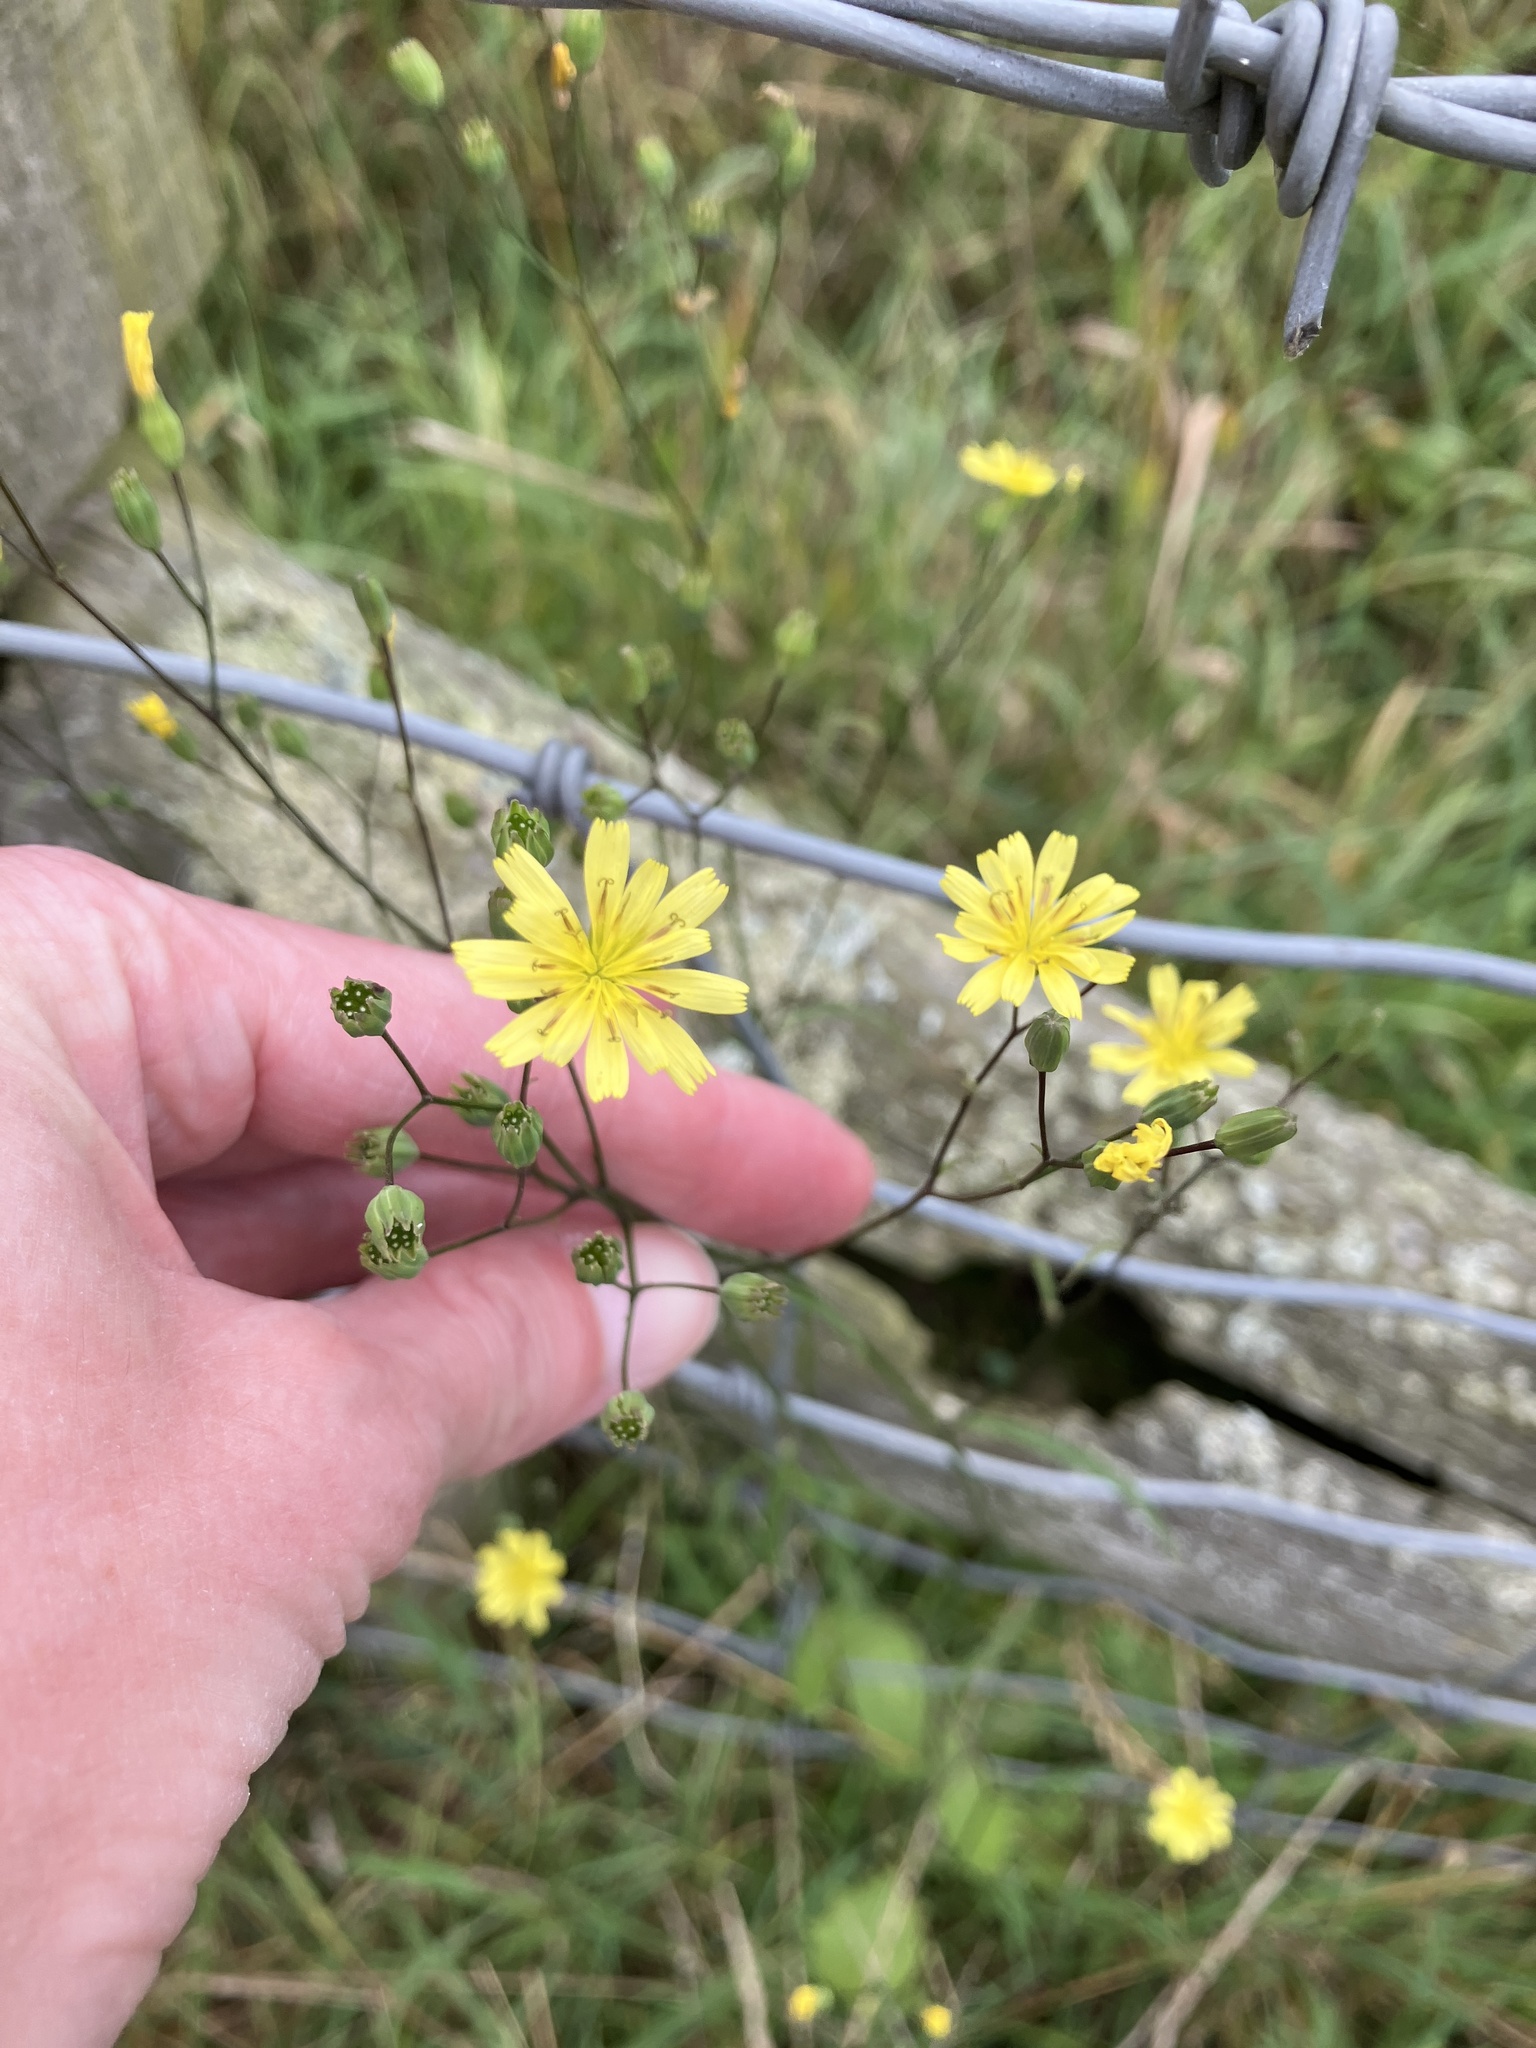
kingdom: Plantae
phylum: Tracheophyta
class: Magnoliopsida
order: Asterales
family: Asteraceae
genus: Lapsana
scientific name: Lapsana communis
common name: Nipplewort
